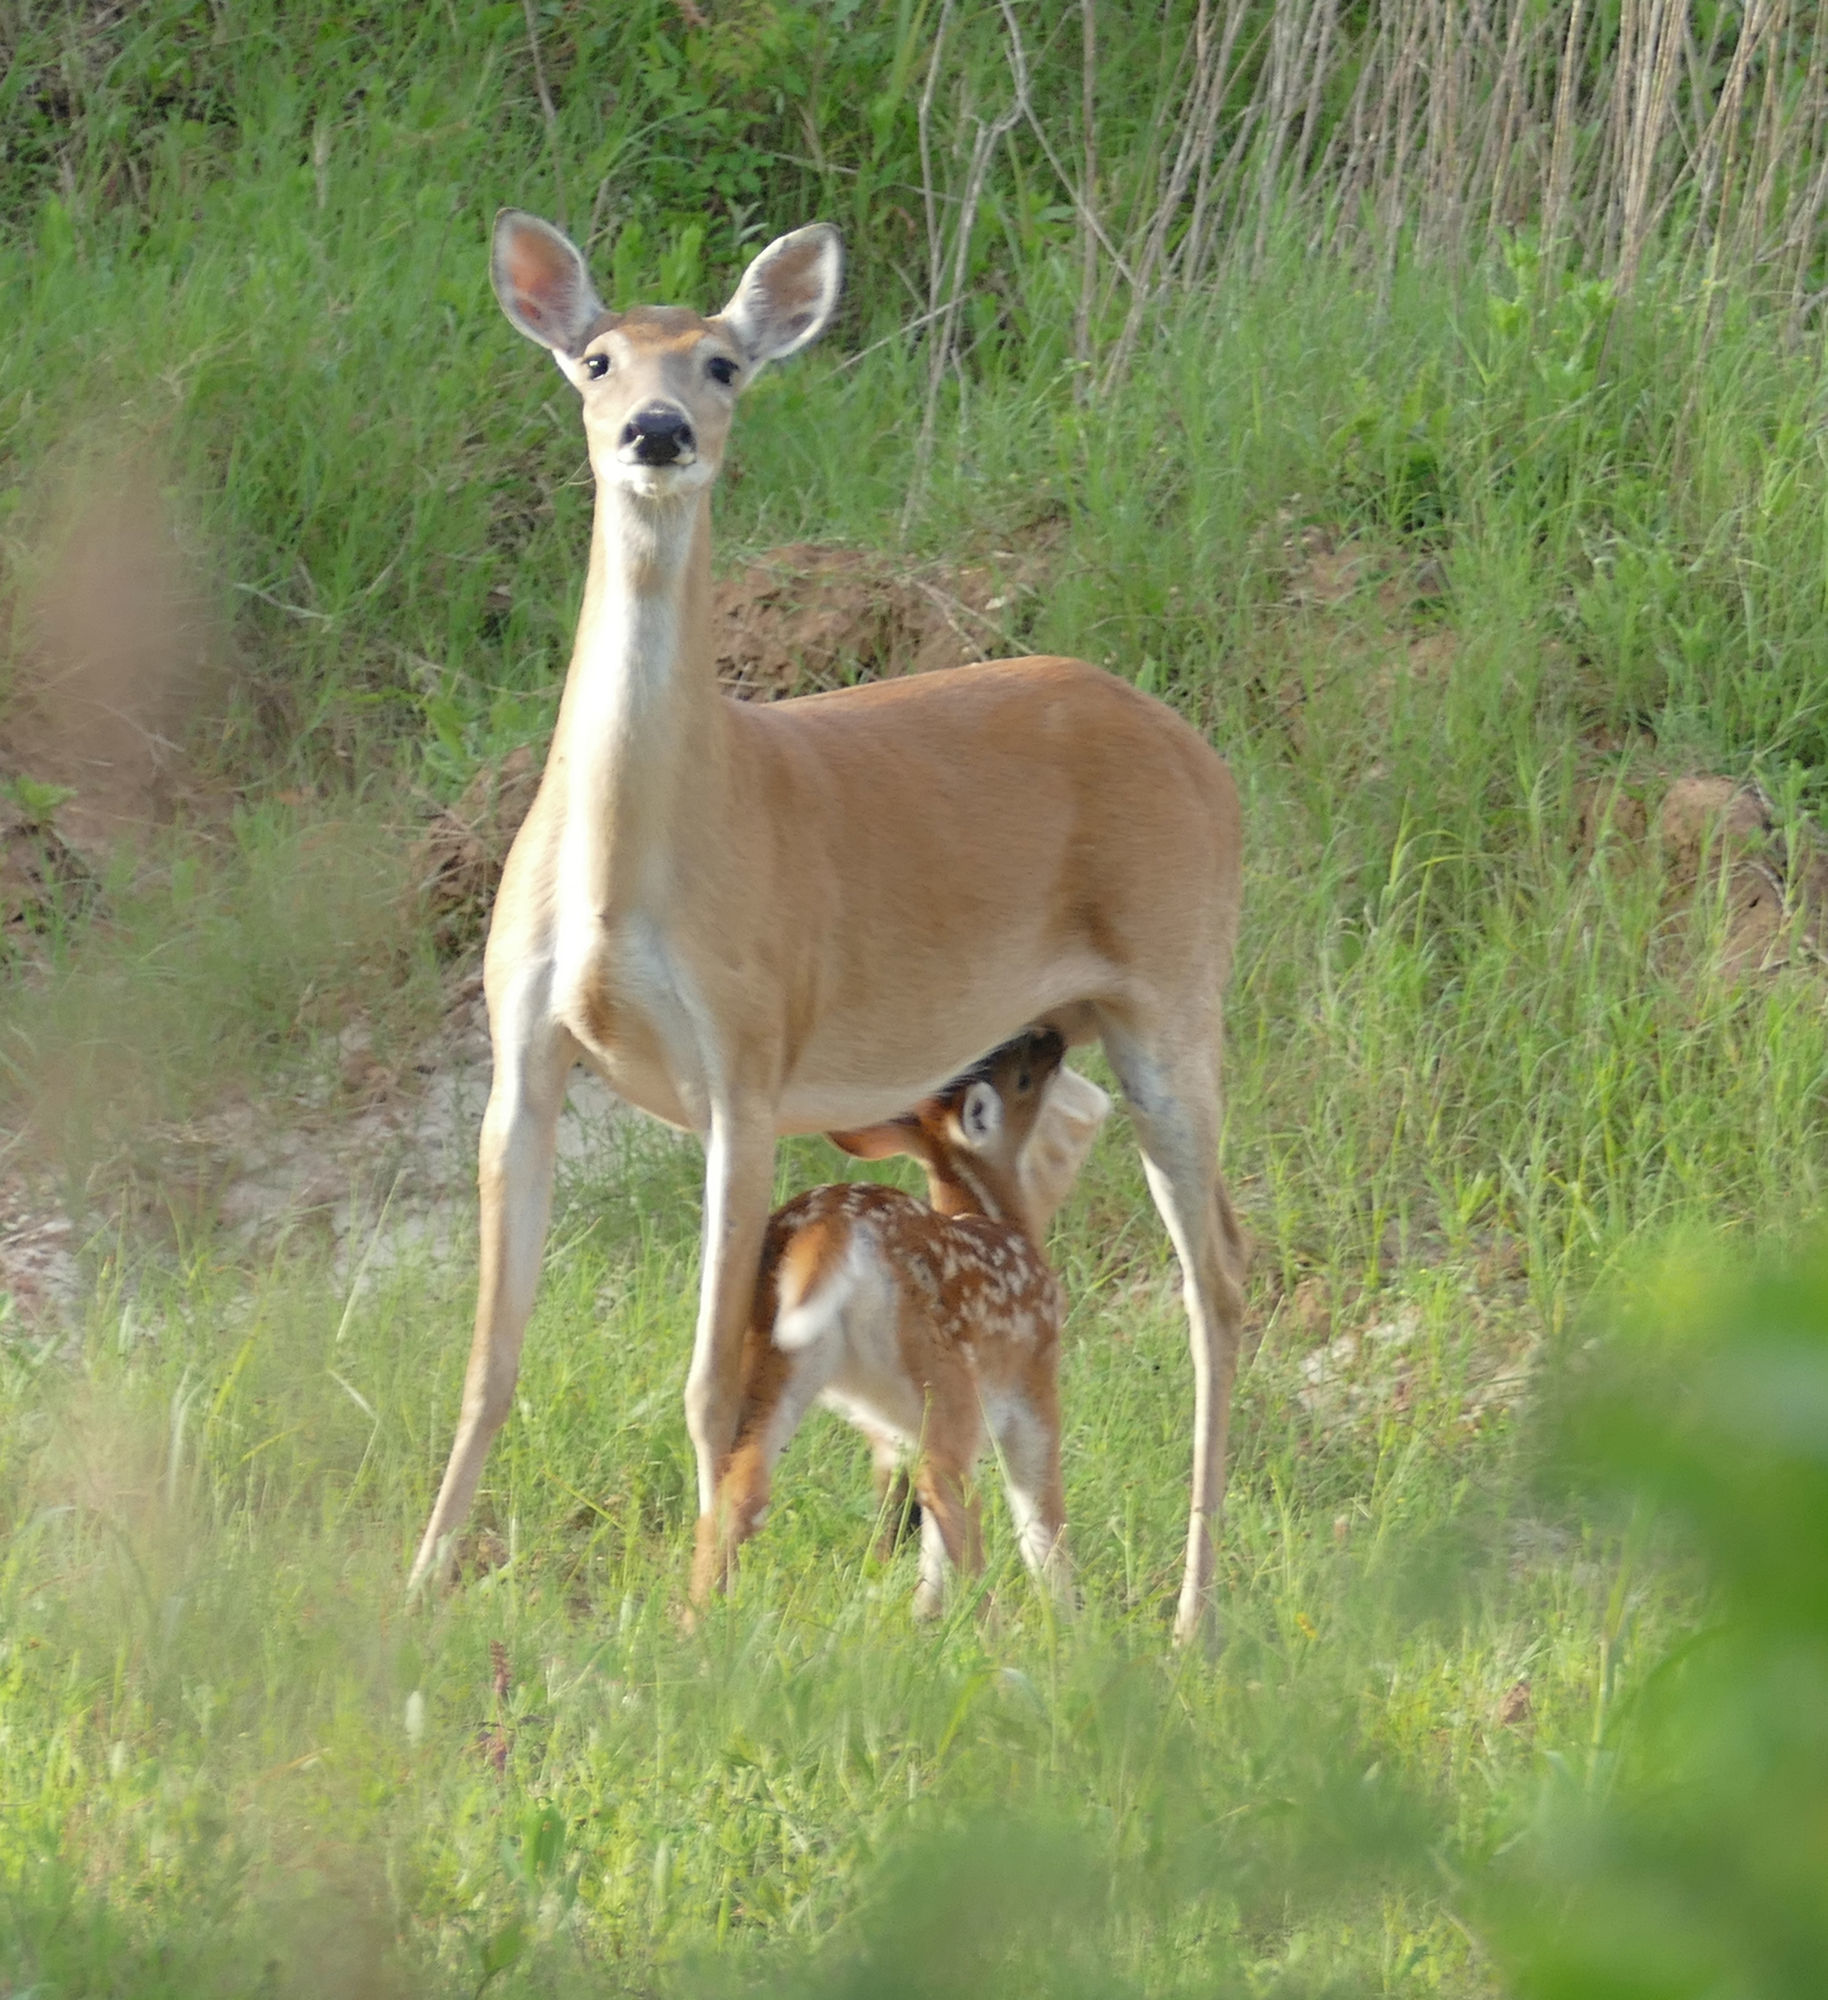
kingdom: Animalia
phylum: Chordata
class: Mammalia
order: Artiodactyla
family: Cervidae
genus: Odocoileus
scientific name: Odocoileus virginianus
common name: White-tailed deer
